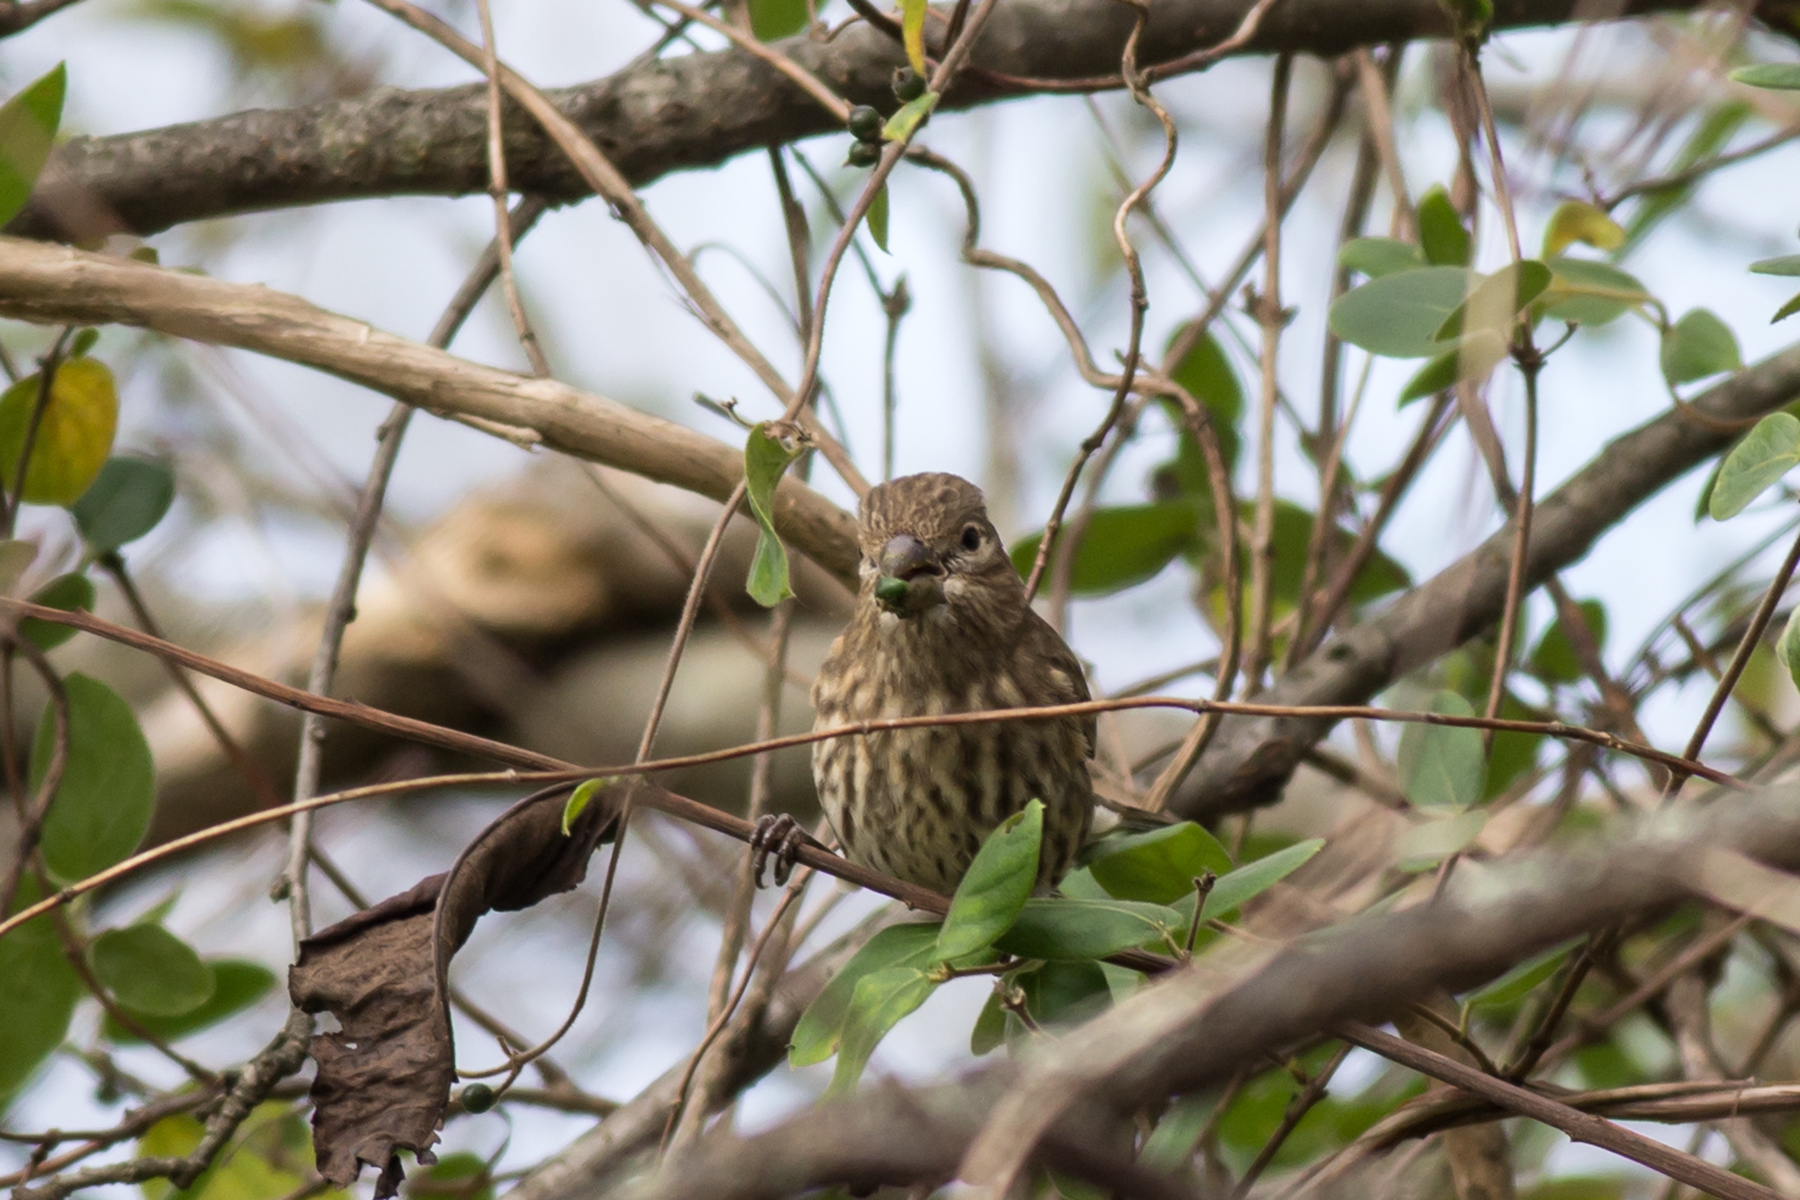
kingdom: Animalia
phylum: Chordata
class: Aves
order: Passeriformes
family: Fringillidae
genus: Haemorhous
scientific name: Haemorhous mexicanus
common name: House finch
